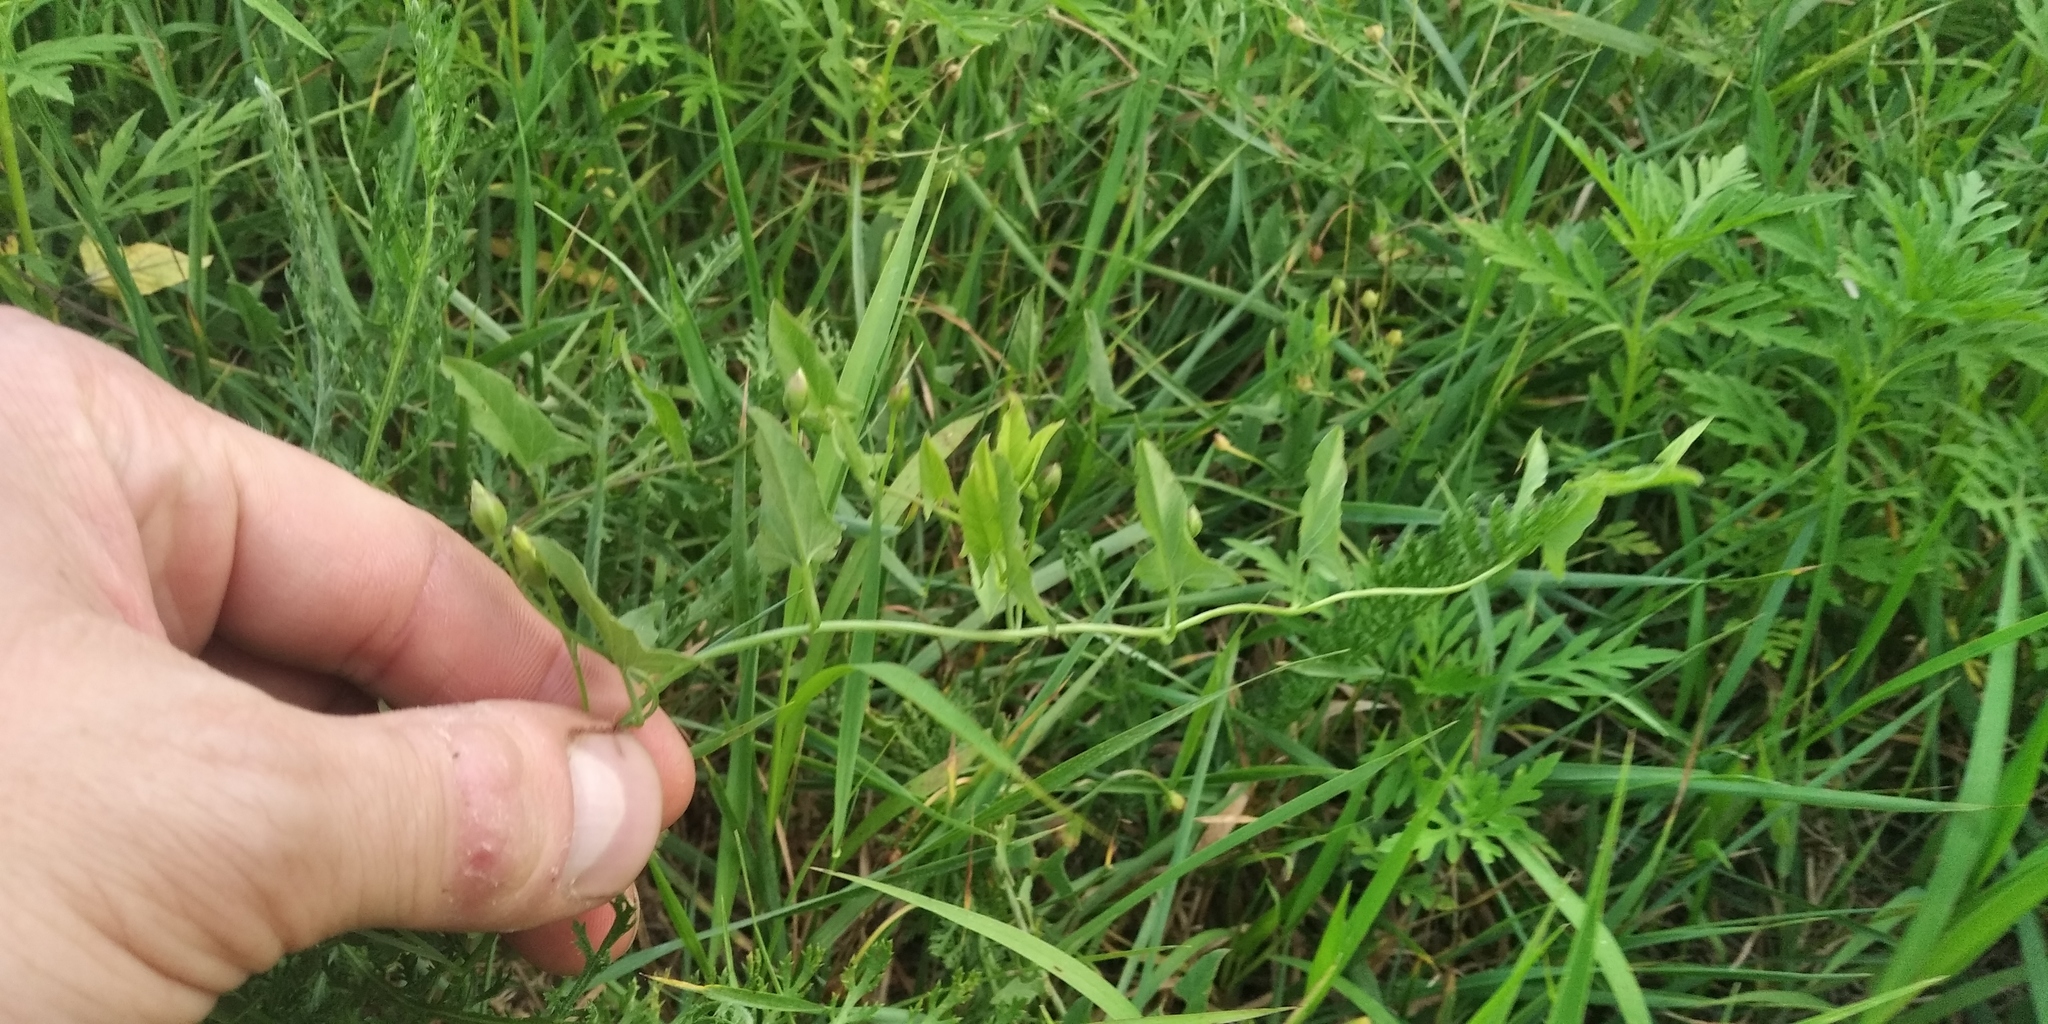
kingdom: Plantae
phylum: Tracheophyta
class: Magnoliopsida
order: Solanales
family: Convolvulaceae
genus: Convolvulus
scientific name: Convolvulus arvensis
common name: Field bindweed
